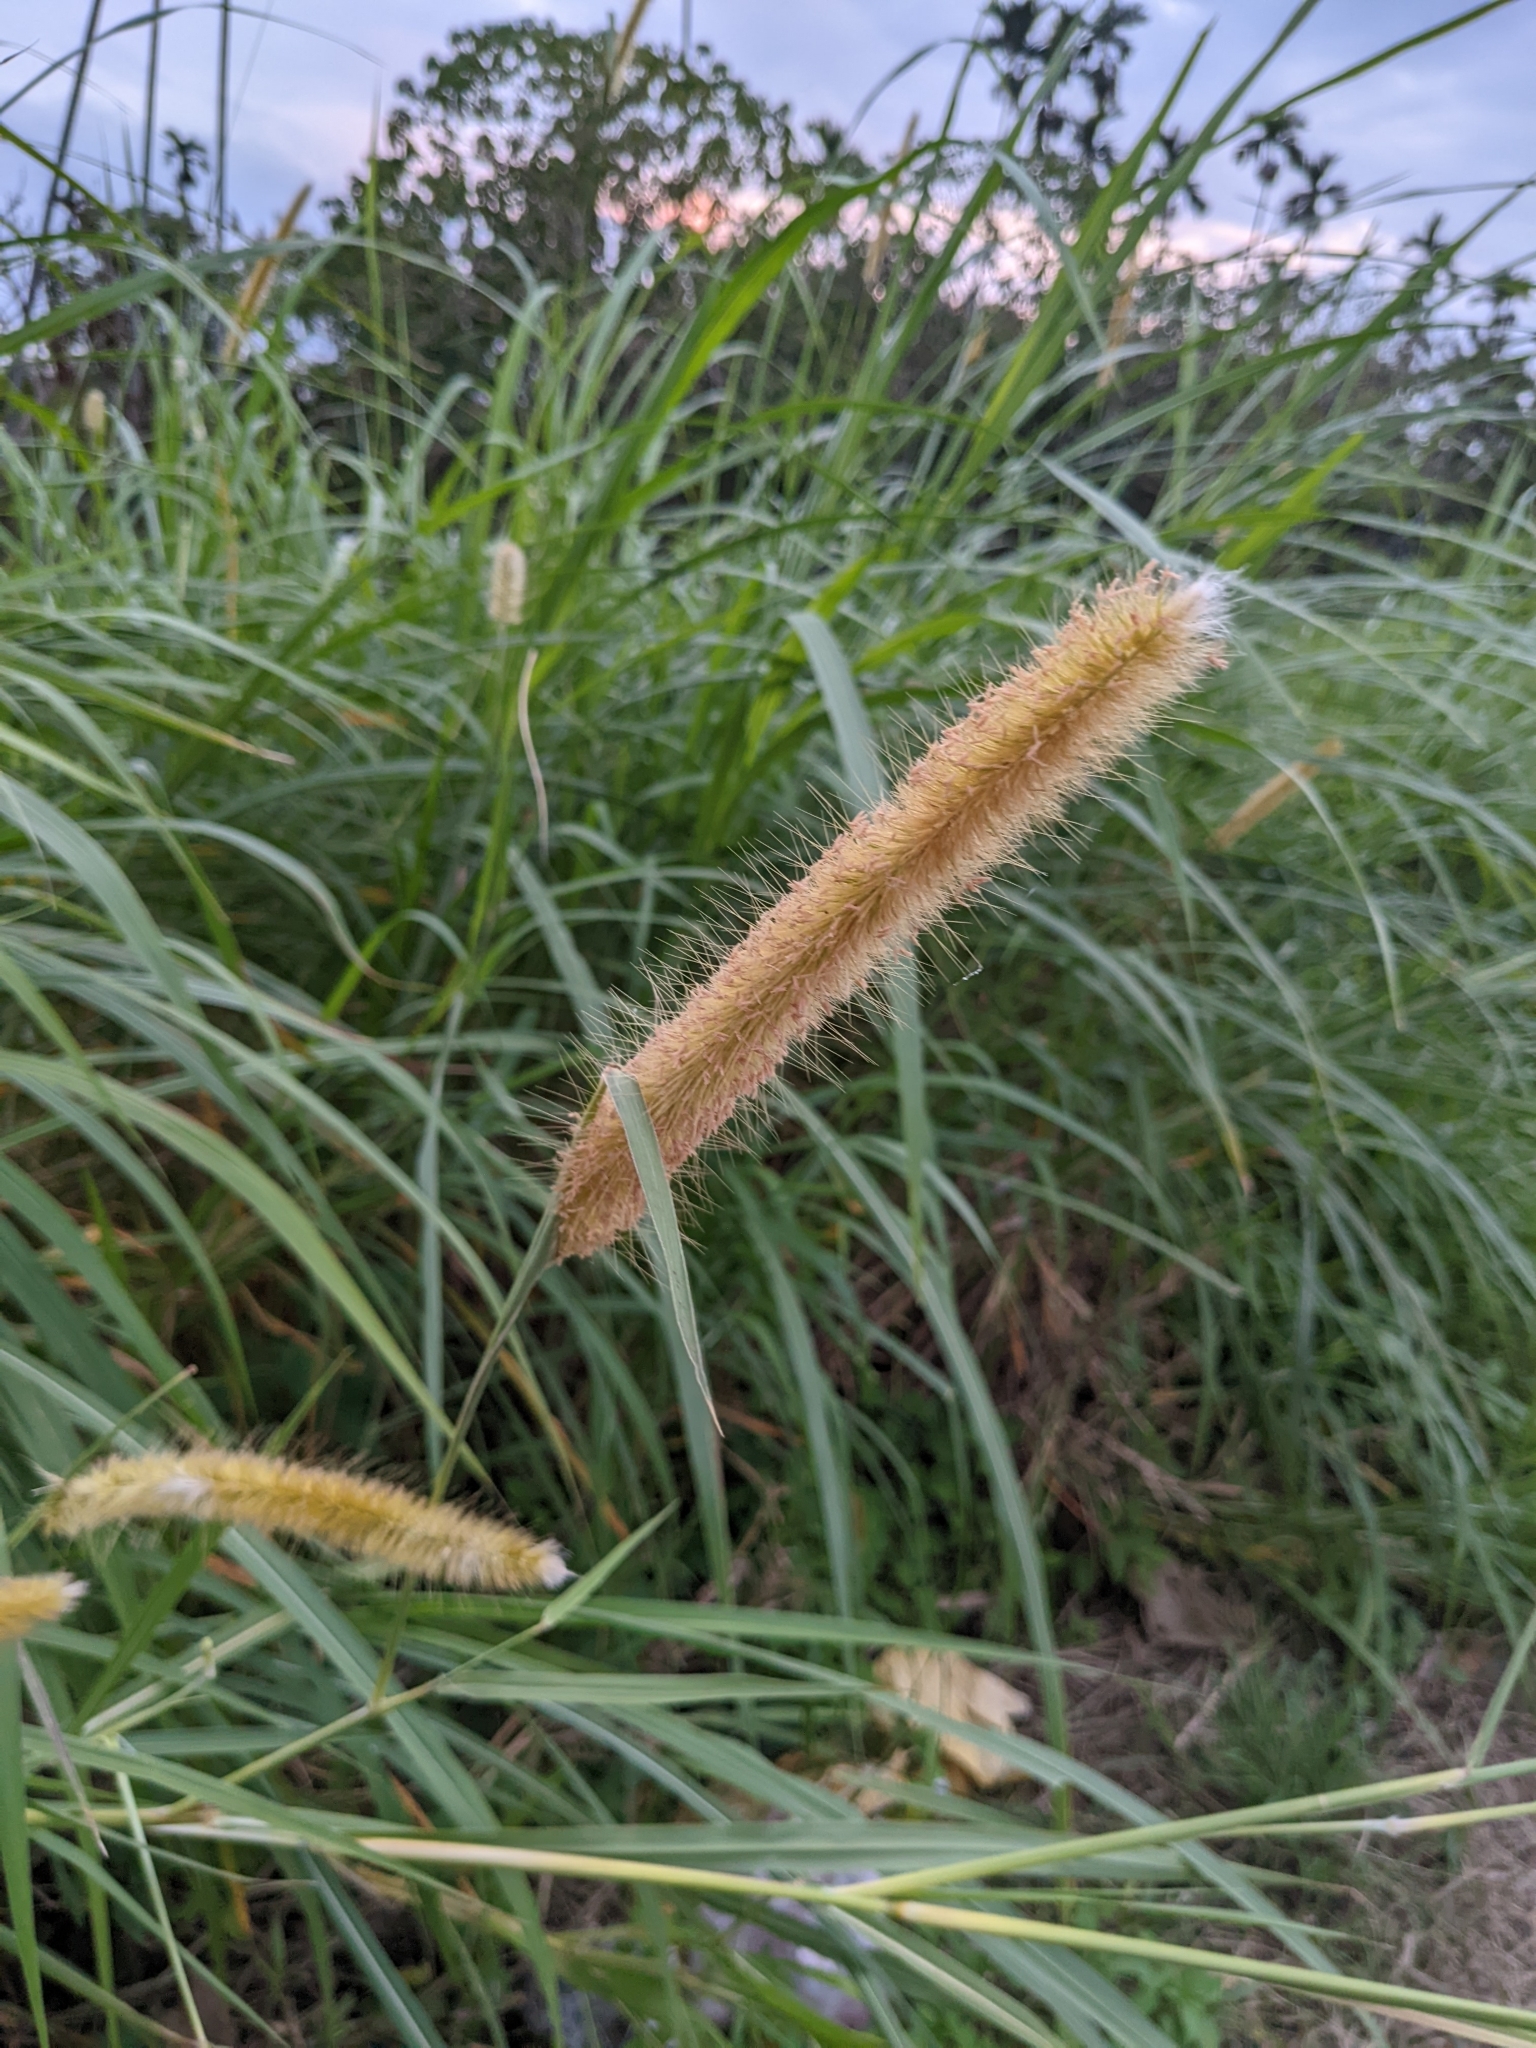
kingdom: Plantae
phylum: Tracheophyta
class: Liliopsida
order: Poales
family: Poaceae
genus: Cenchrus
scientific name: Cenchrus purpureus
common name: Elephant grass
